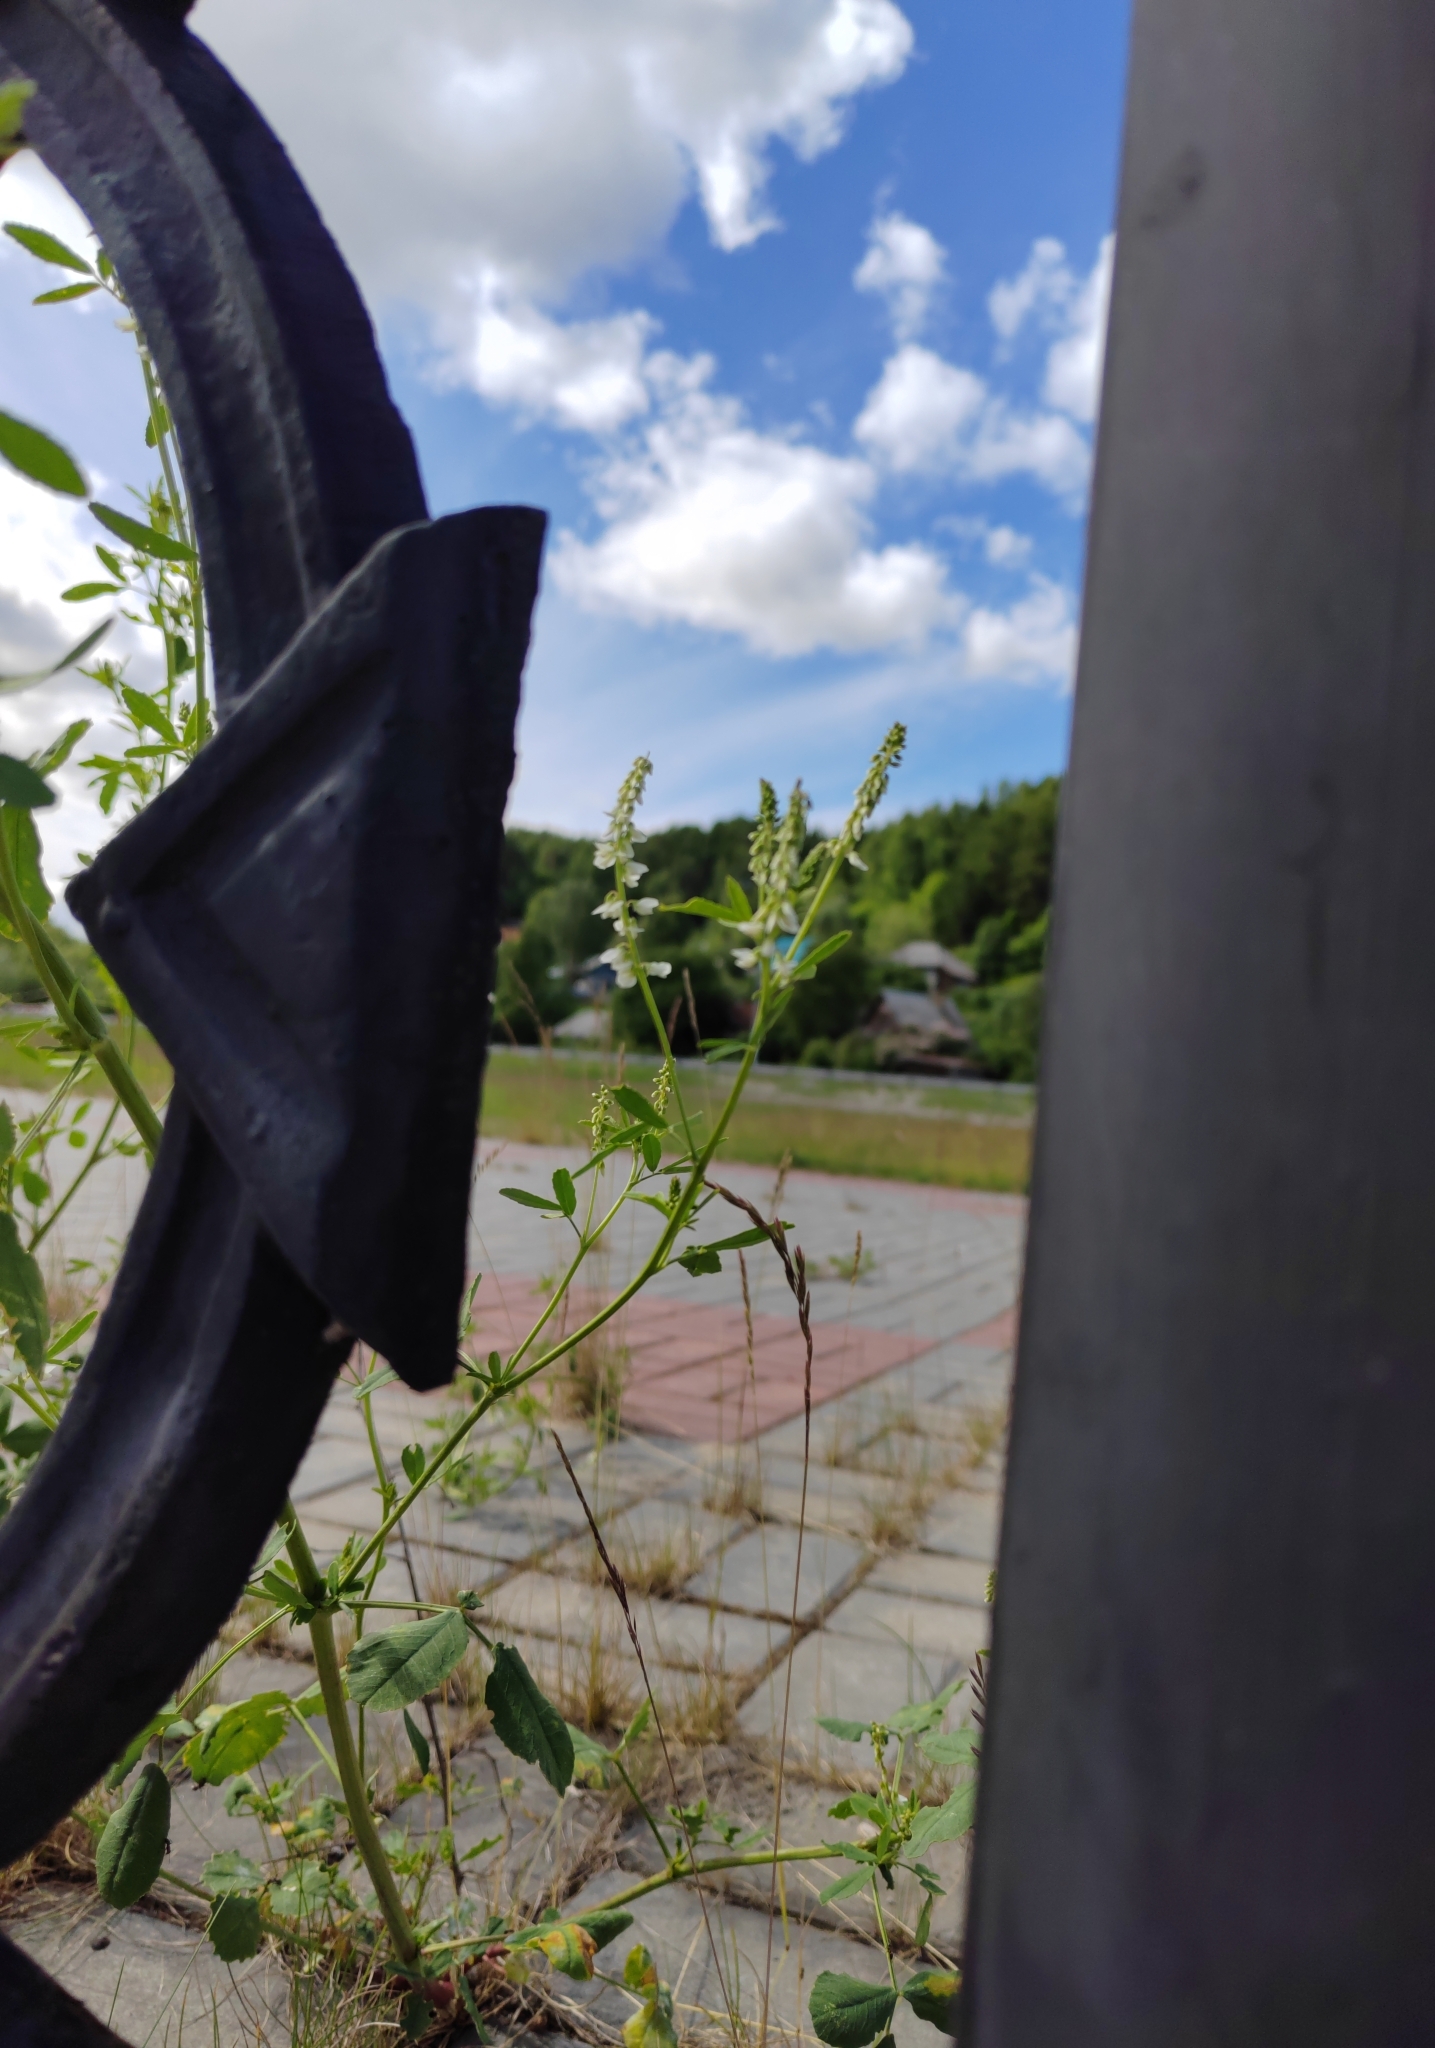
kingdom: Plantae
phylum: Tracheophyta
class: Magnoliopsida
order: Fabales
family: Fabaceae
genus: Melilotus
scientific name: Melilotus albus
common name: White melilot
